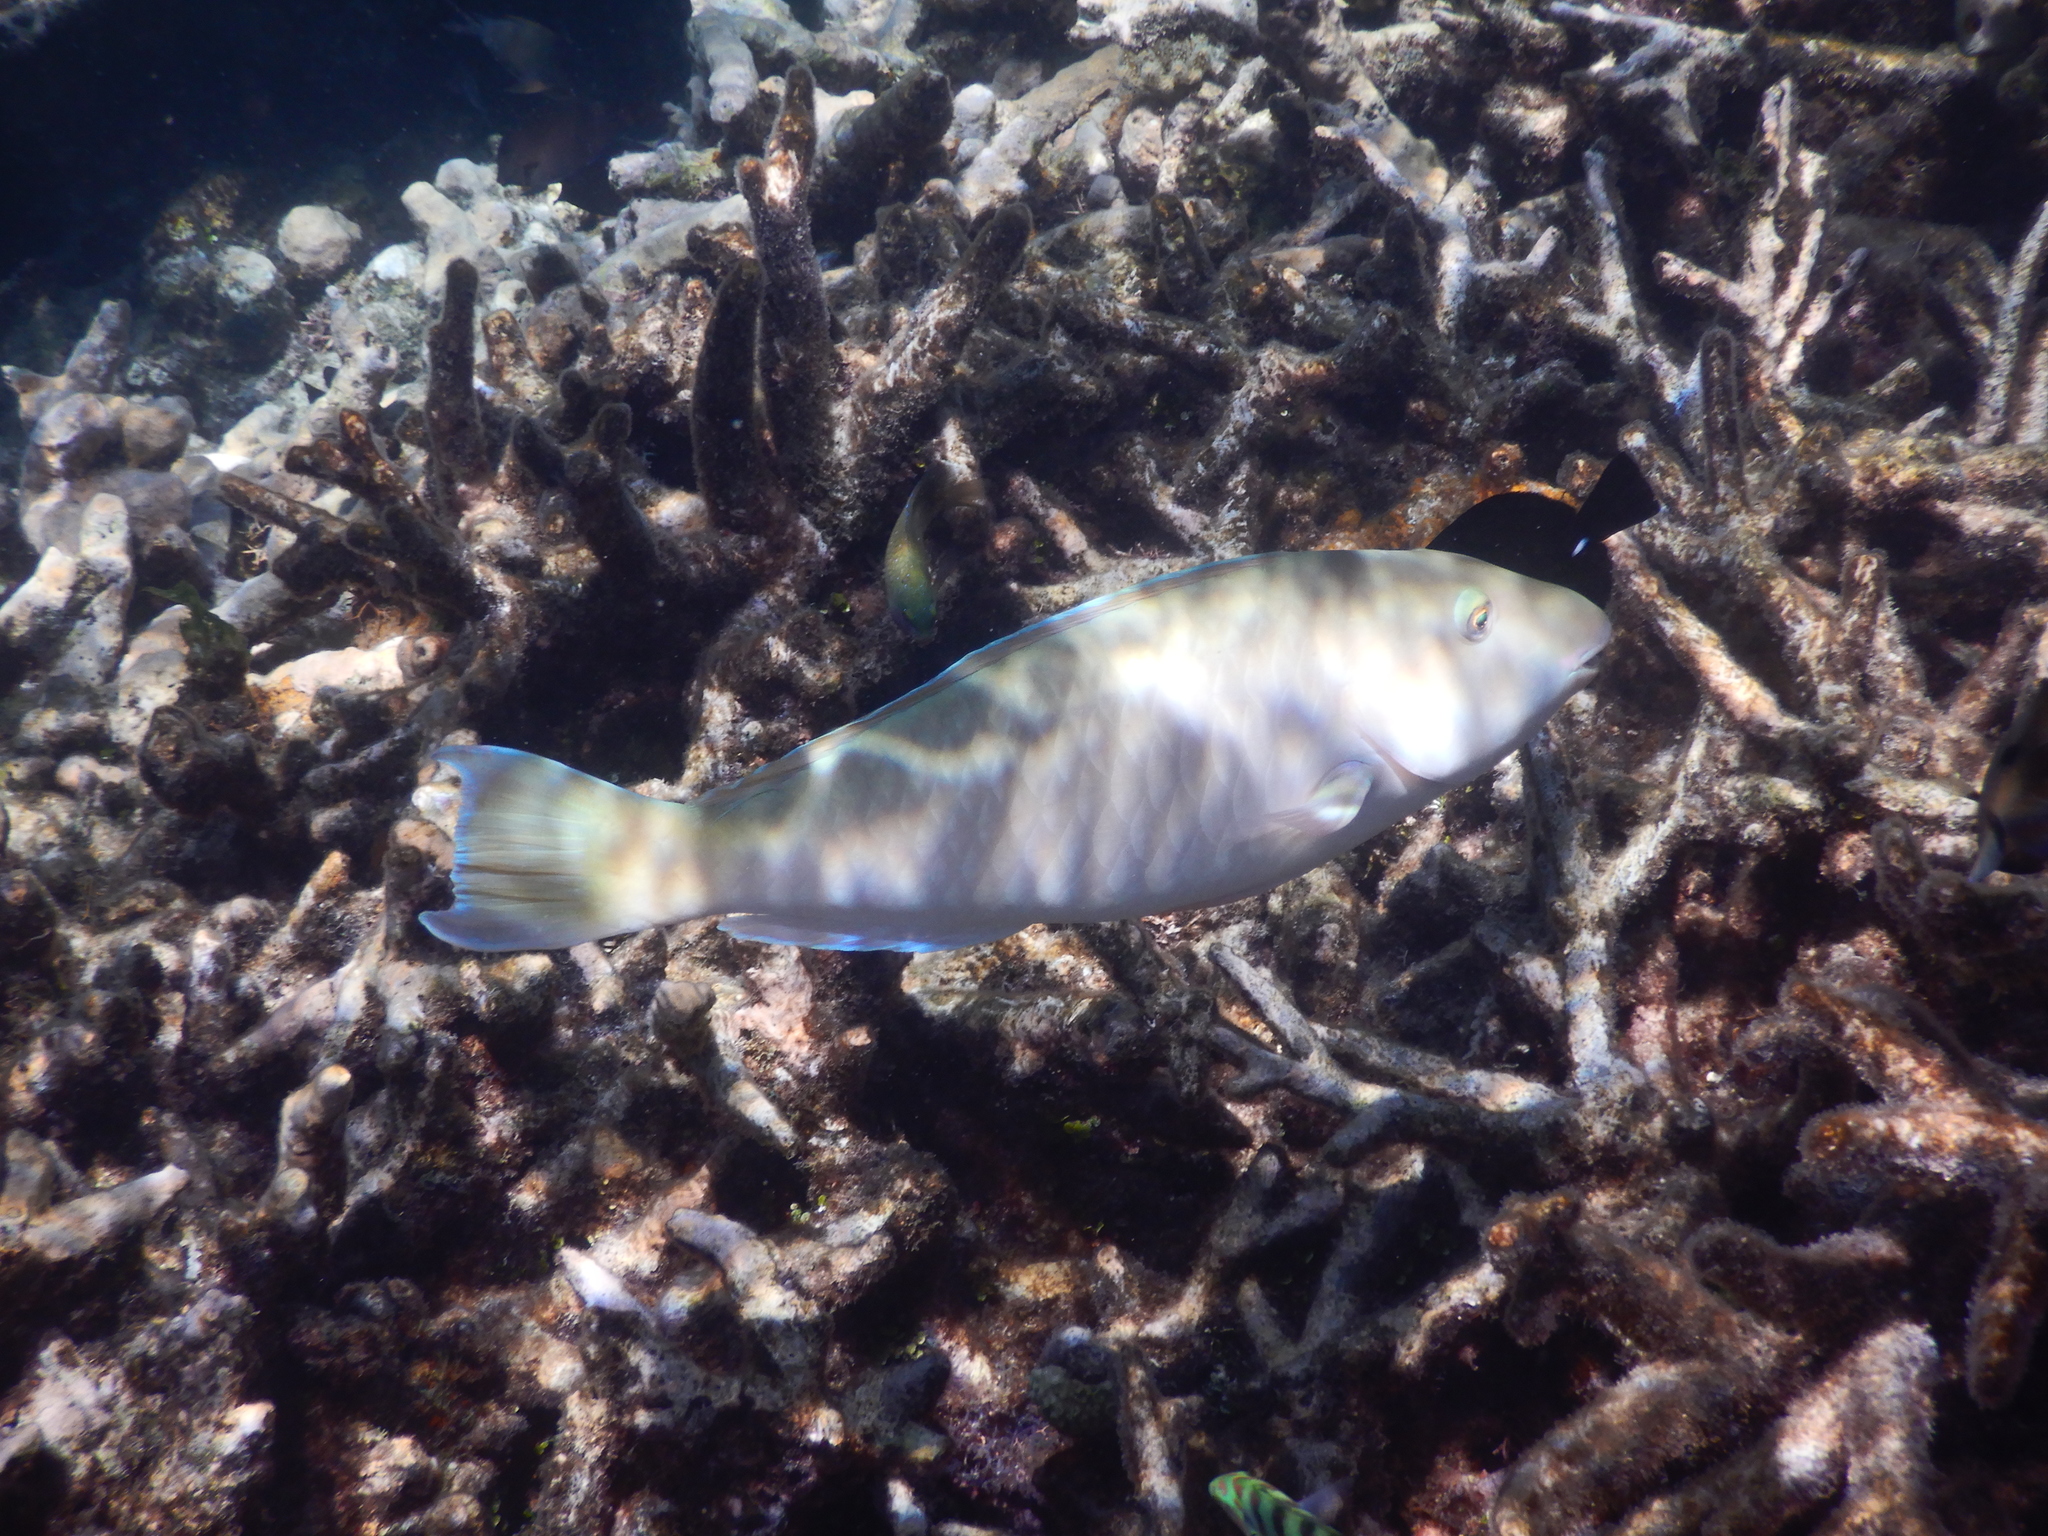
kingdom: Animalia
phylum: Chordata
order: Perciformes
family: Scaridae
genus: Hipposcarus
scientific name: Hipposcarus longiceps
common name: Pacific longnose parrotfish
